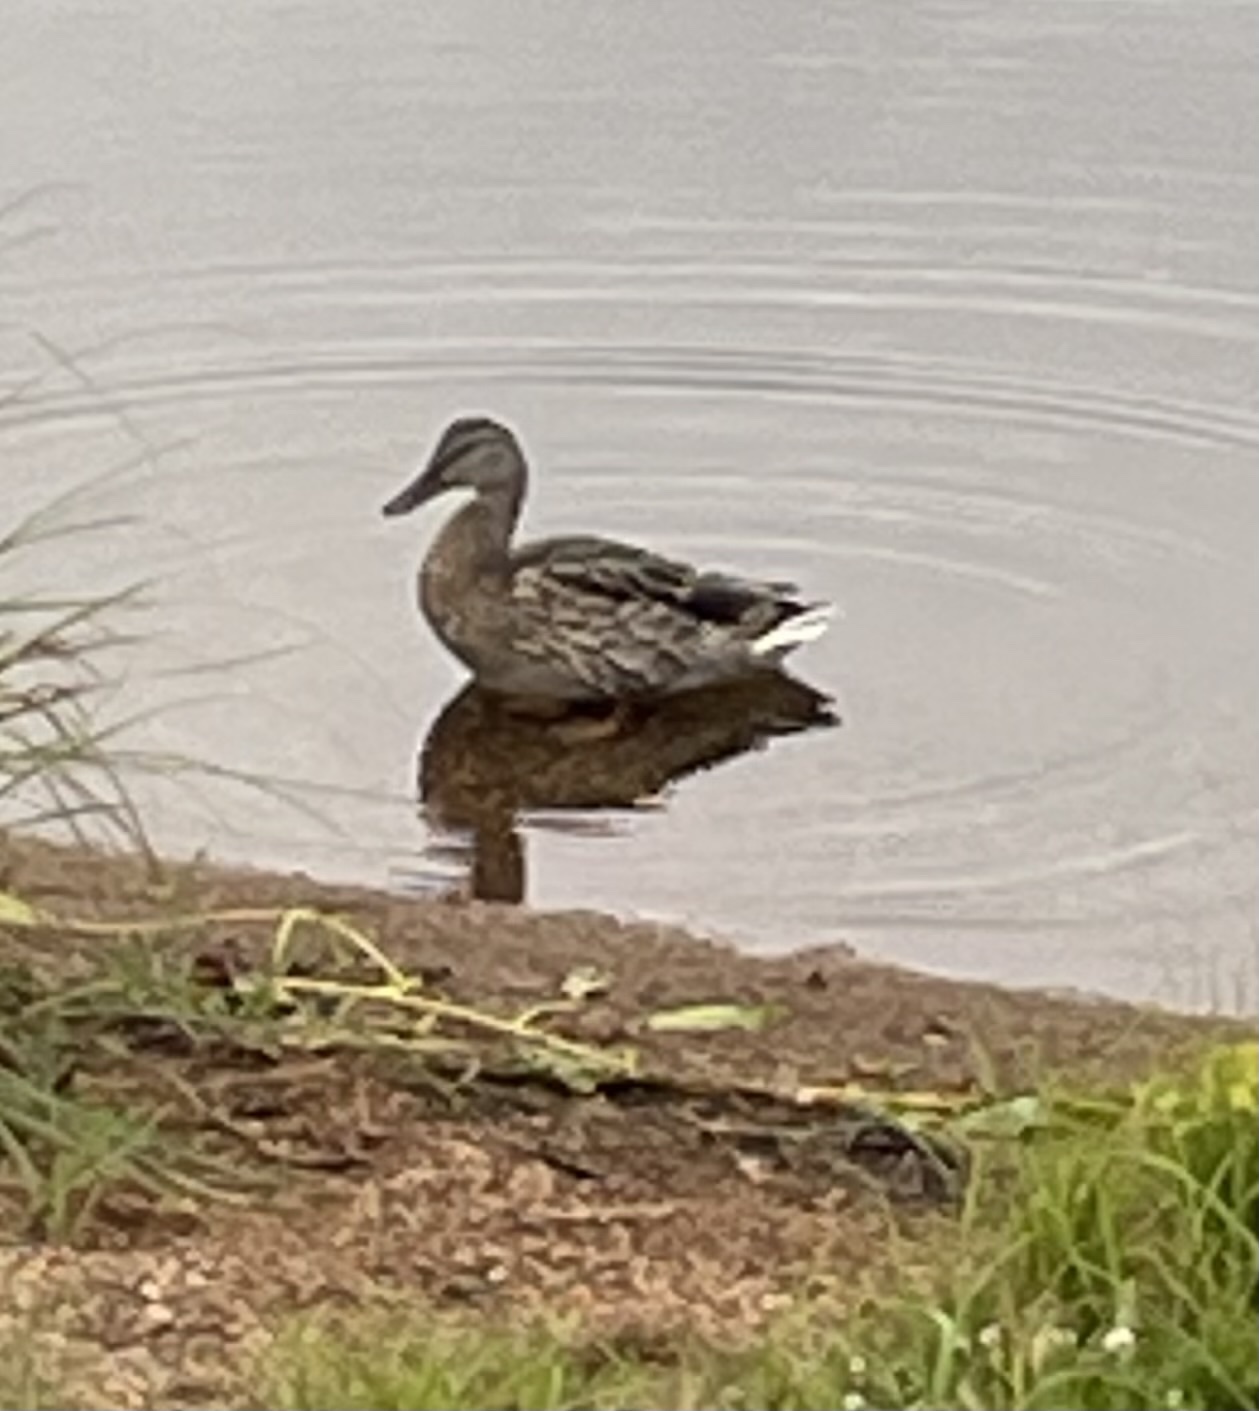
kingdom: Animalia
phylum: Chordata
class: Aves
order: Anseriformes
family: Anatidae
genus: Anas
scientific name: Anas platyrhynchos
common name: Mallard
